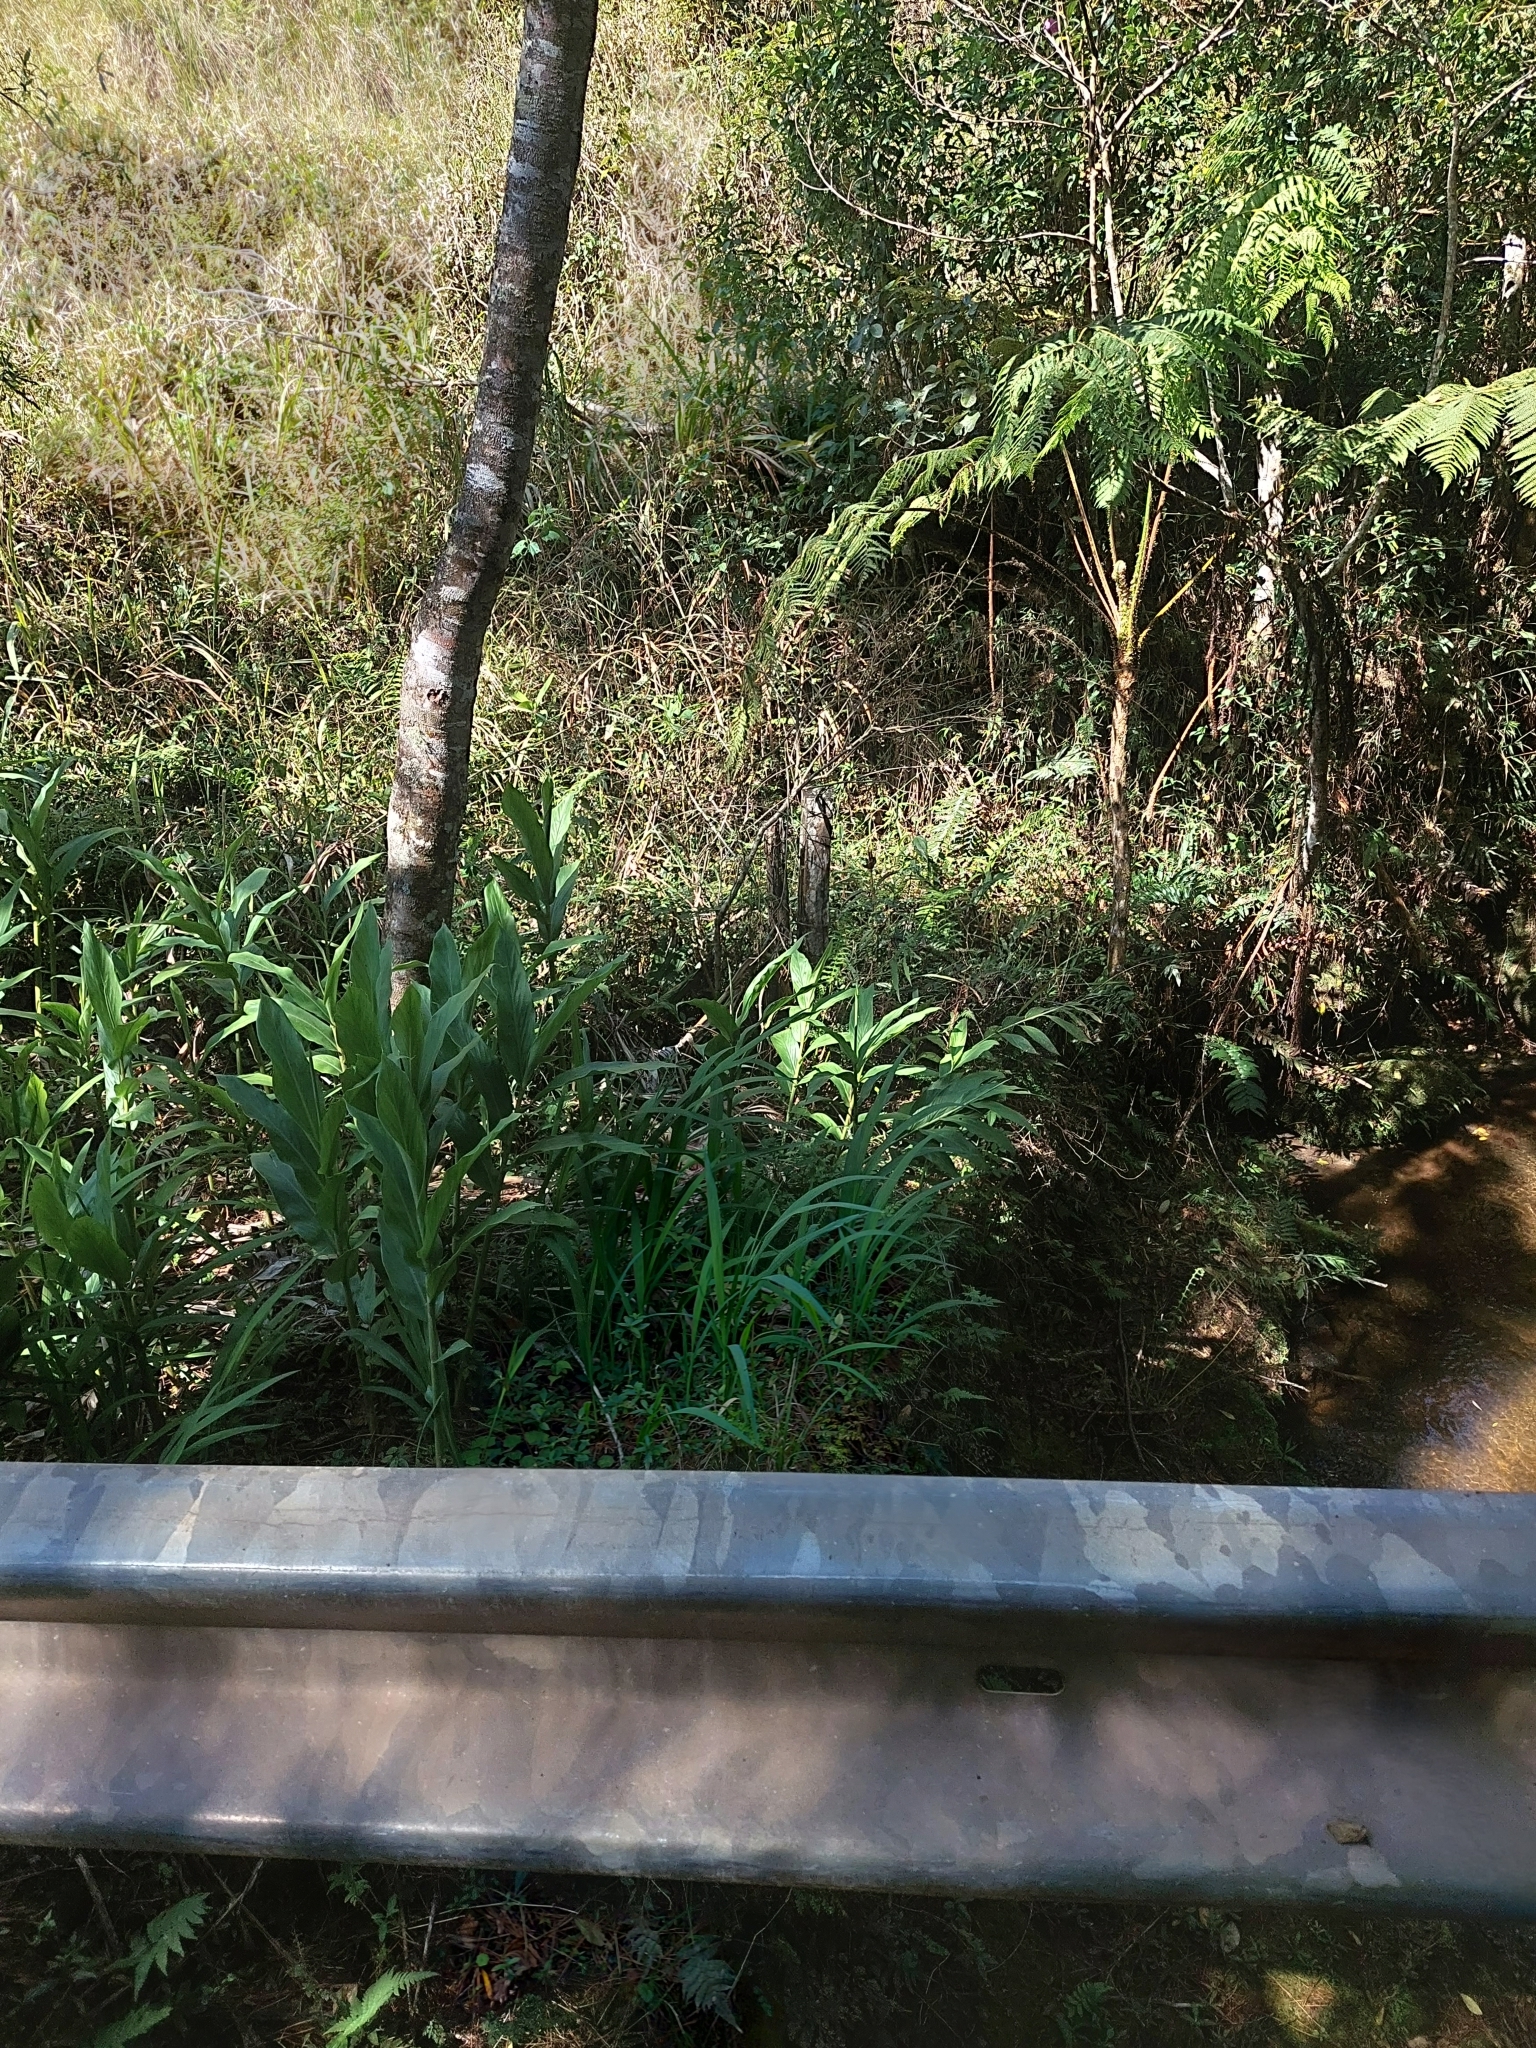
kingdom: Plantae
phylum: Tracheophyta
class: Liliopsida
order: Zingiberales
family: Zingiberaceae
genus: Hedychium
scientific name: Hedychium coronarium
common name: White garland-lily
